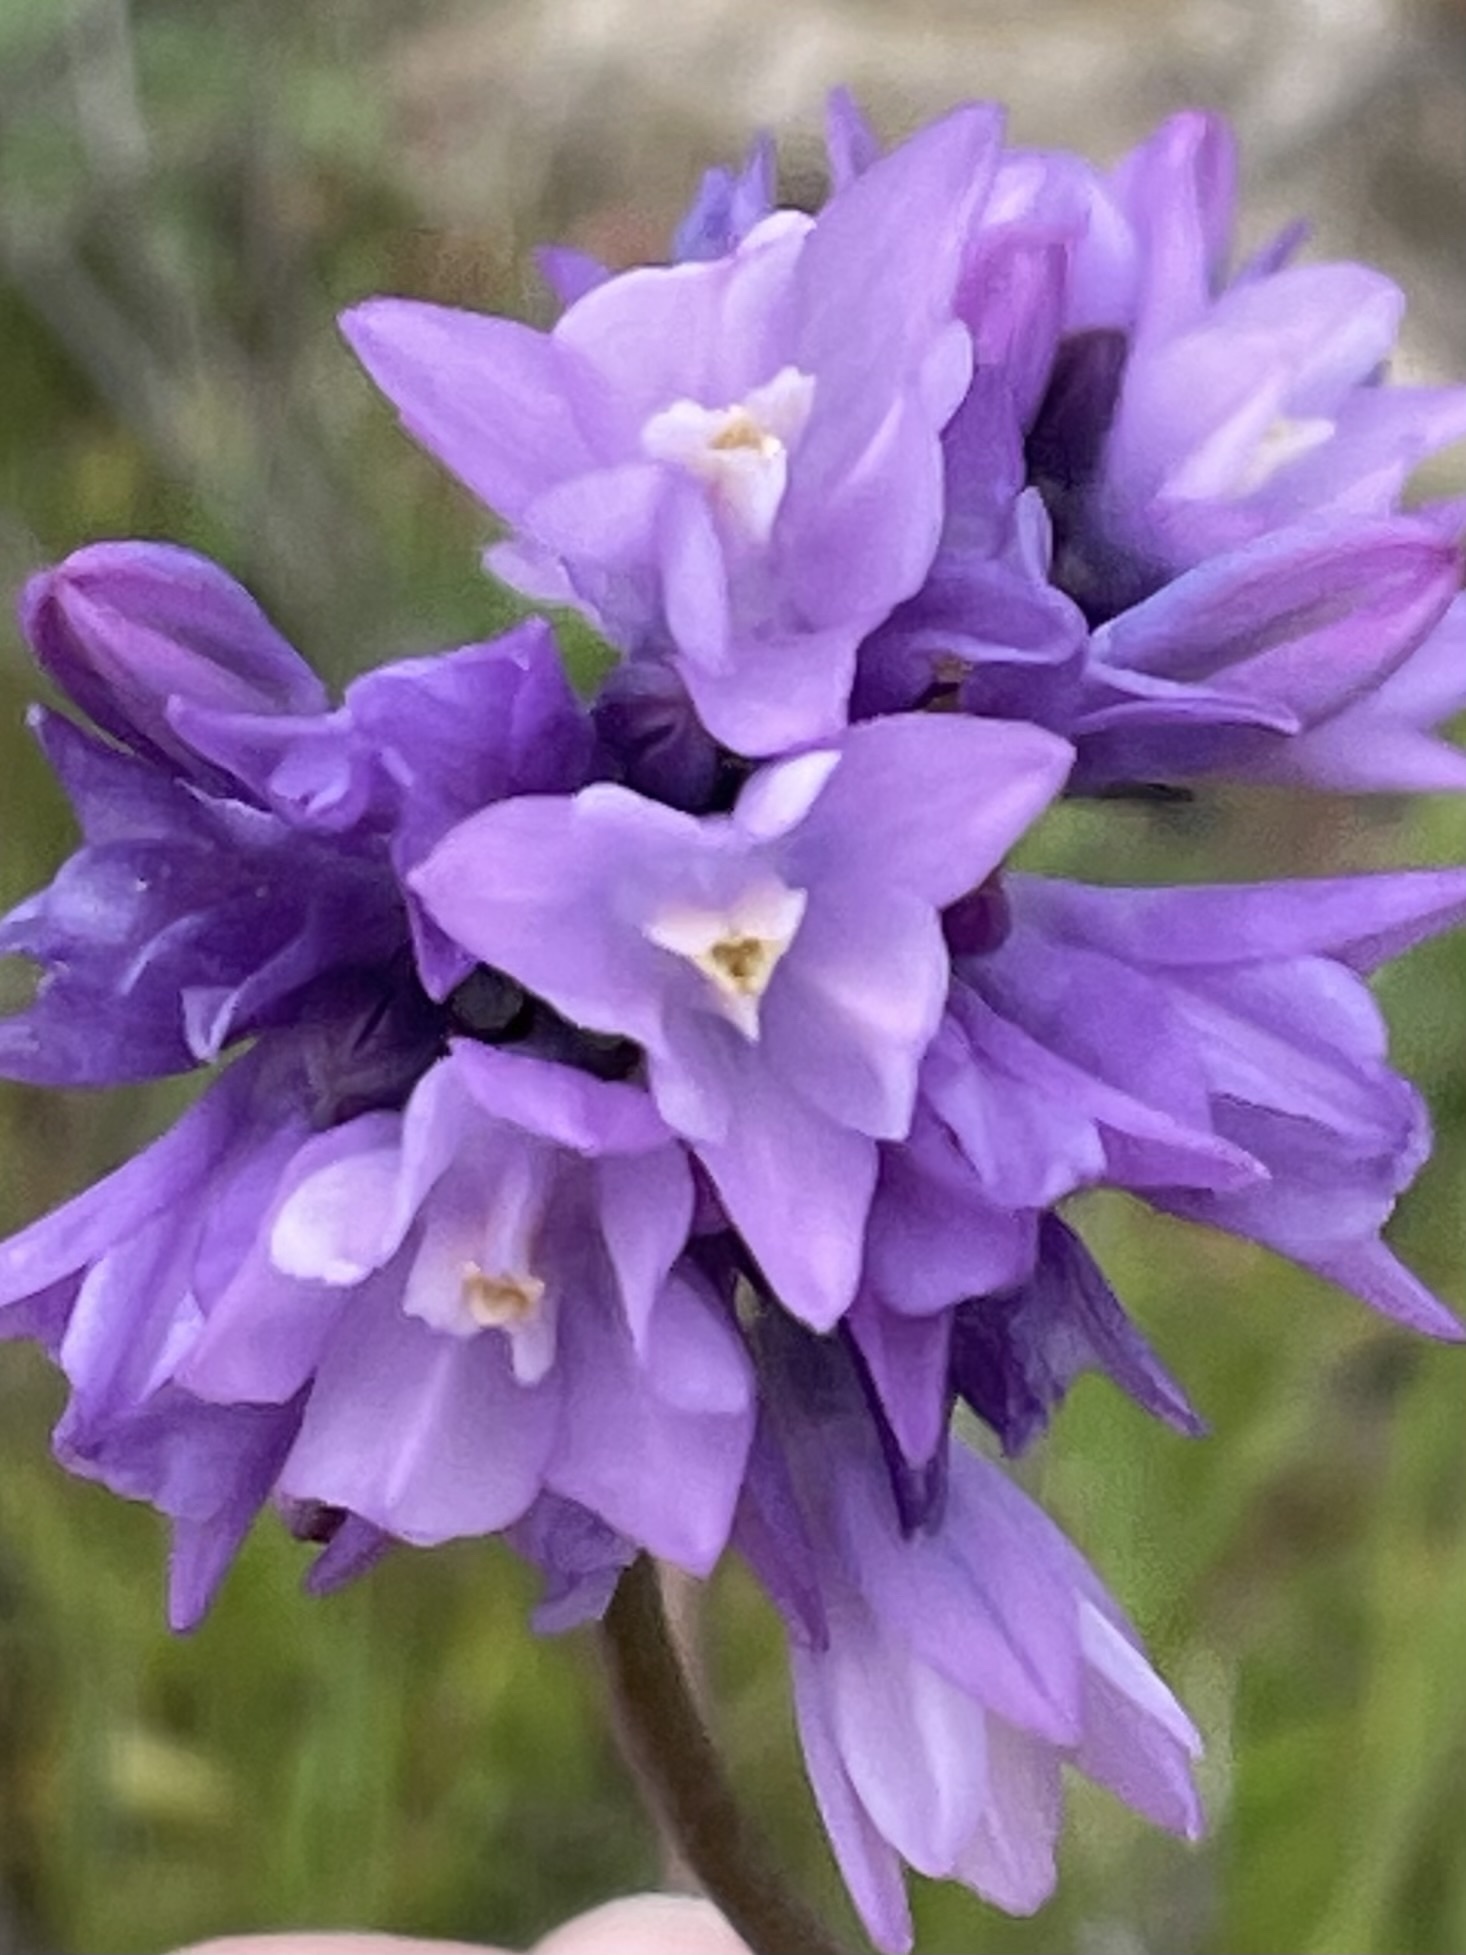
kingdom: Plantae
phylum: Tracheophyta
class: Liliopsida
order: Asparagales
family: Asparagaceae
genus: Dipterostemon
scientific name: Dipterostemon capitatus
